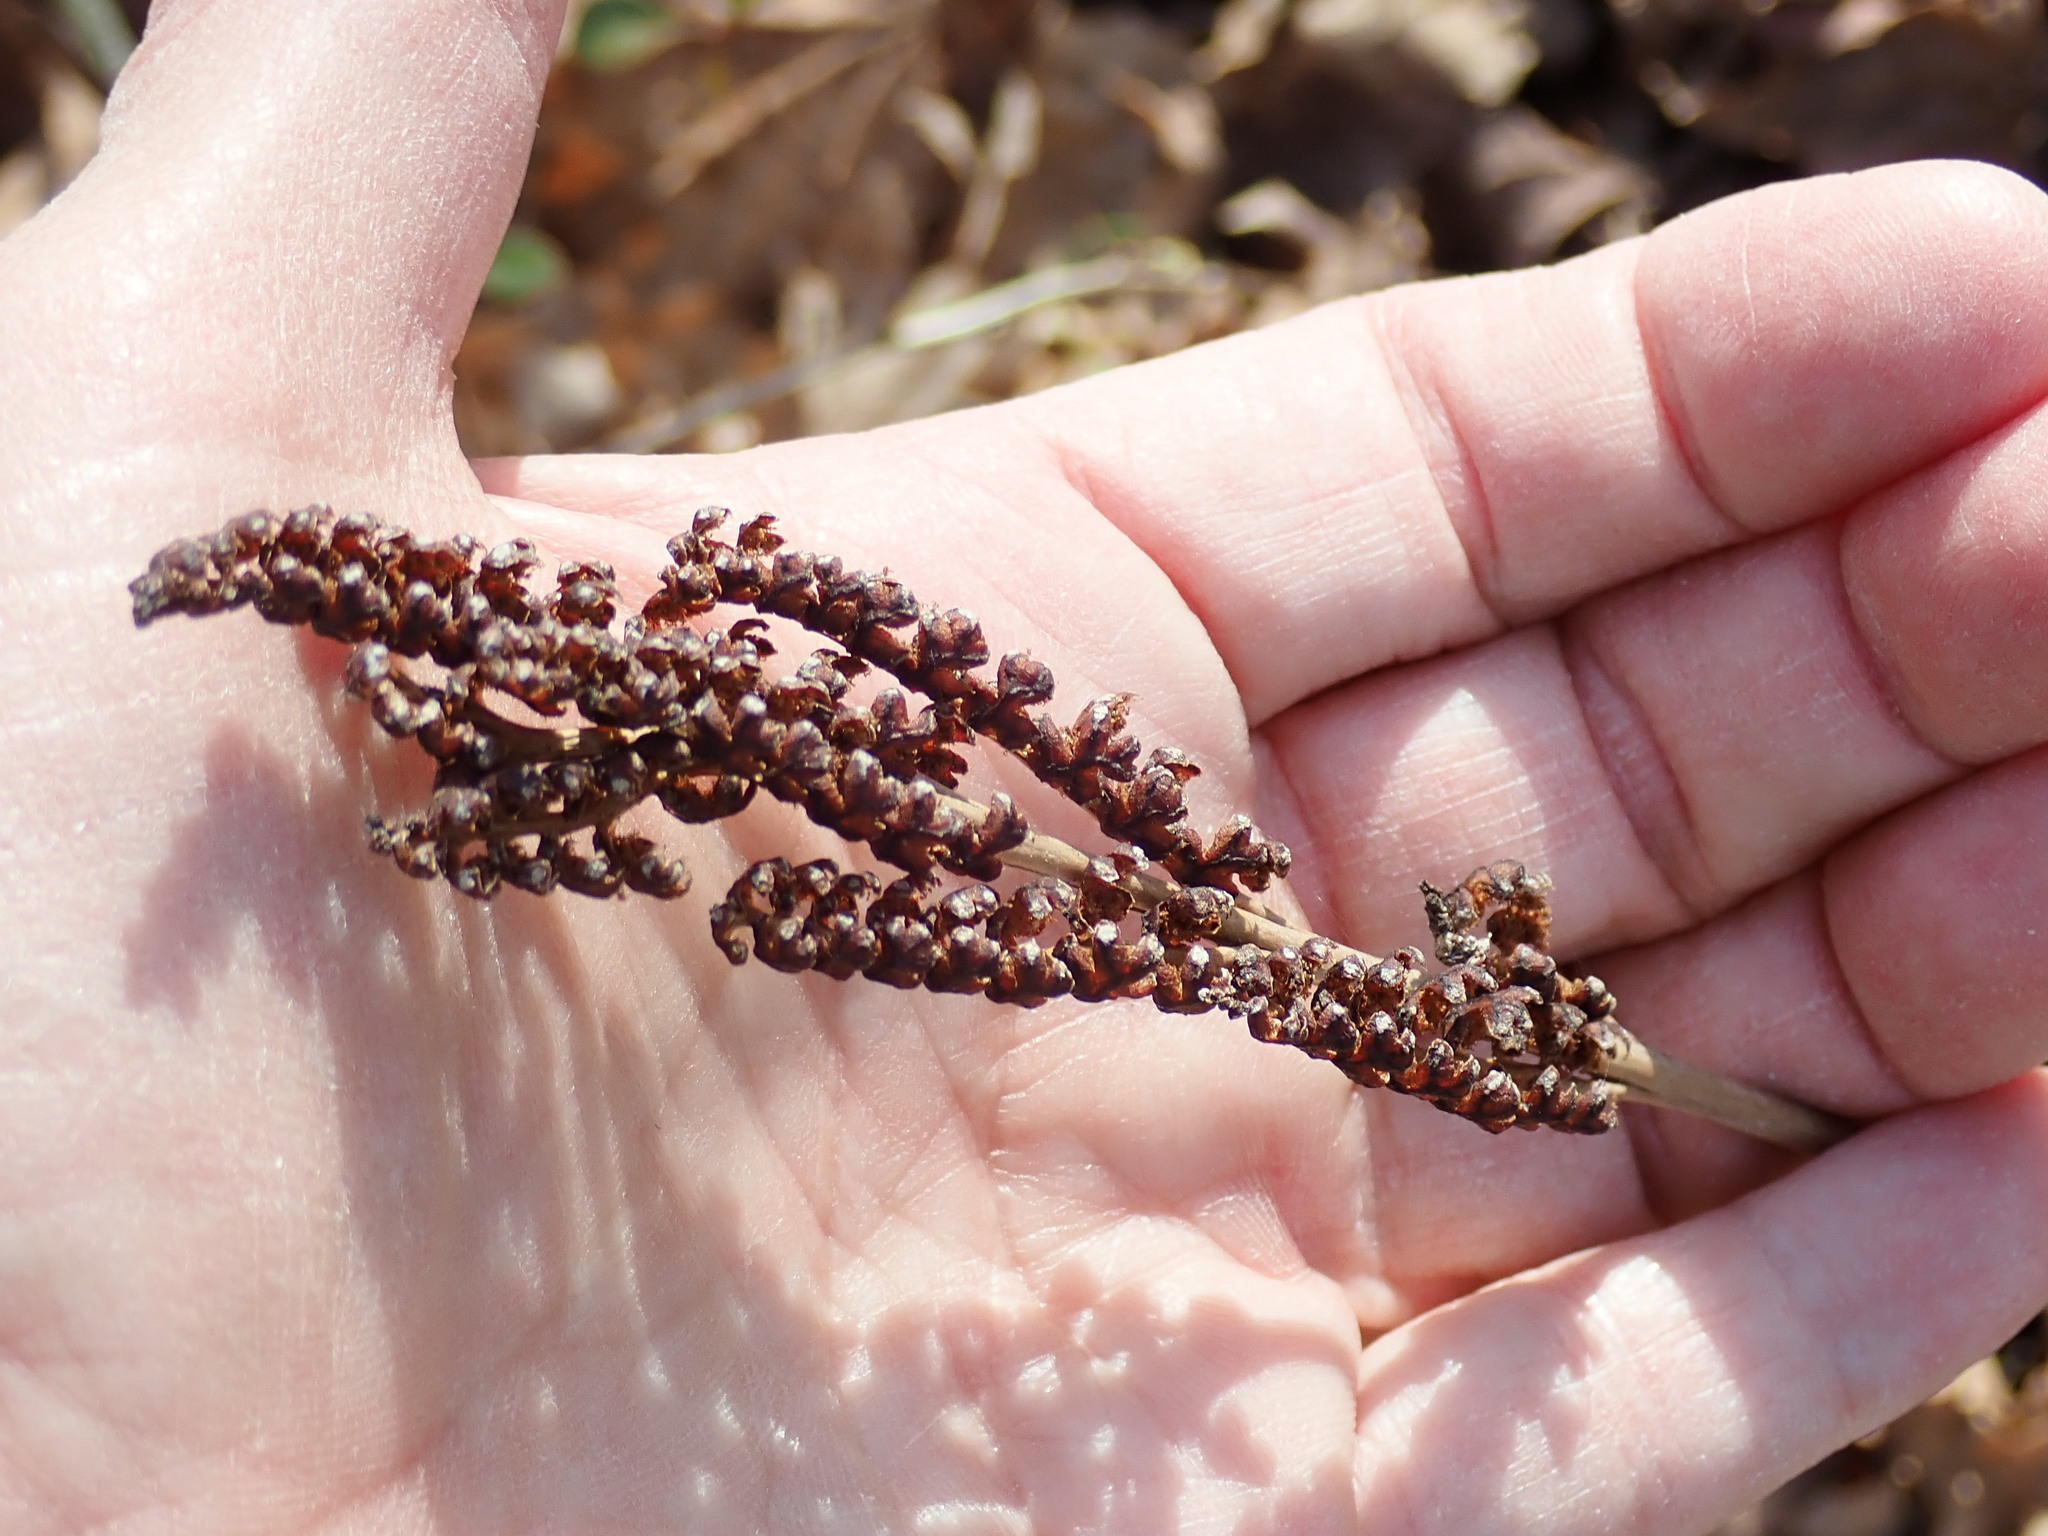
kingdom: Plantae
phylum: Tracheophyta
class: Polypodiopsida
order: Polypodiales
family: Onocleaceae
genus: Onoclea
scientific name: Onoclea sensibilis
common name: Sensitive fern
